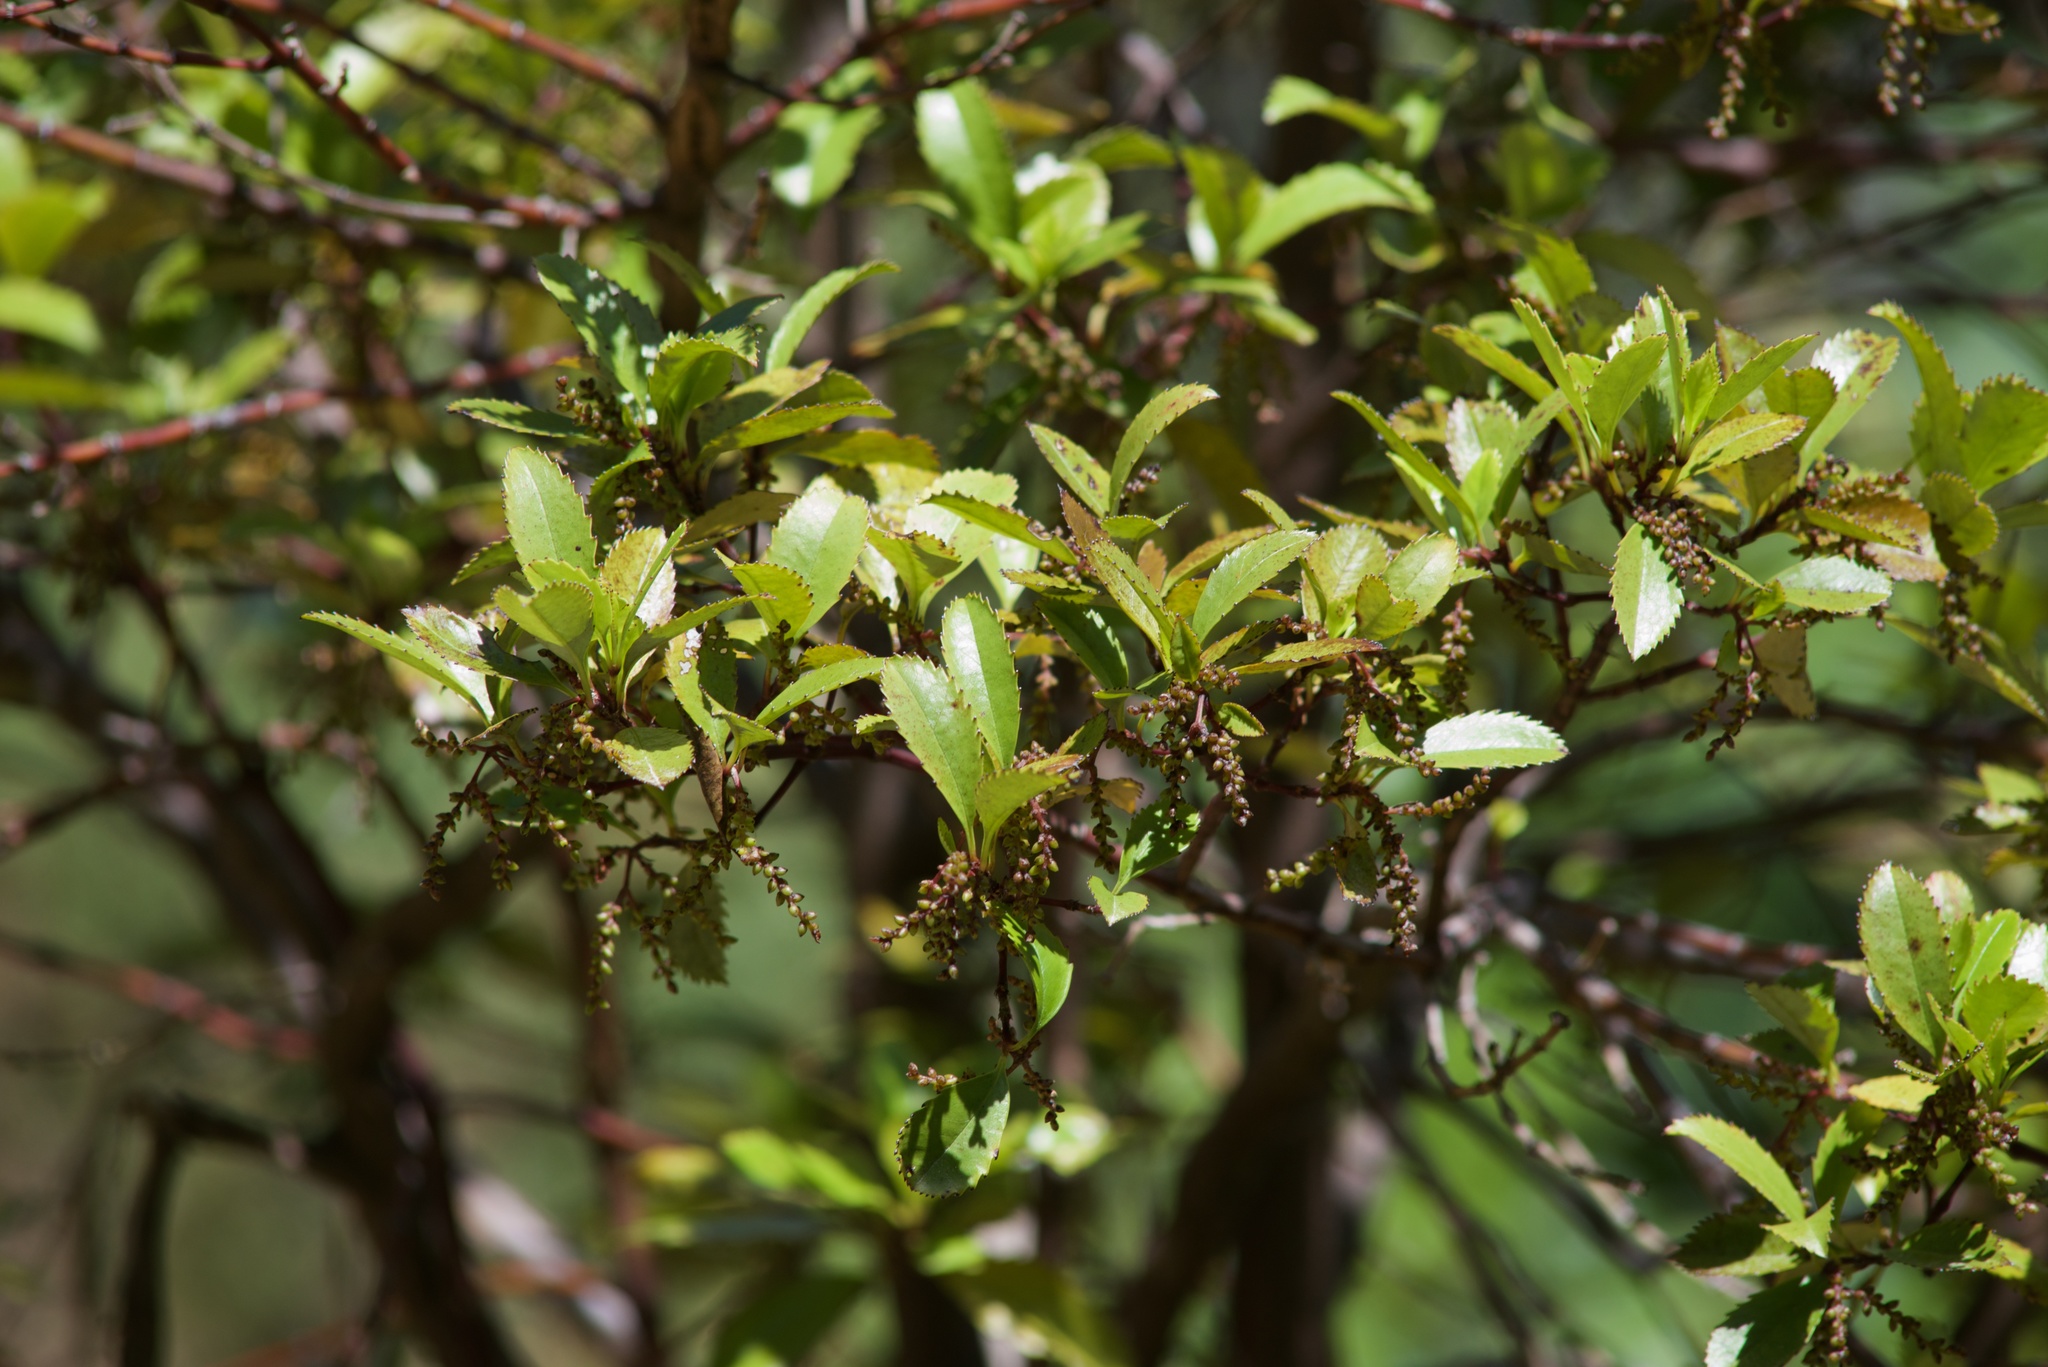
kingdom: Plantae
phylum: Tracheophyta
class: Magnoliopsida
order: Chloranthales
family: Chloranthaceae
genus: Ascarina
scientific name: Ascarina lucida
